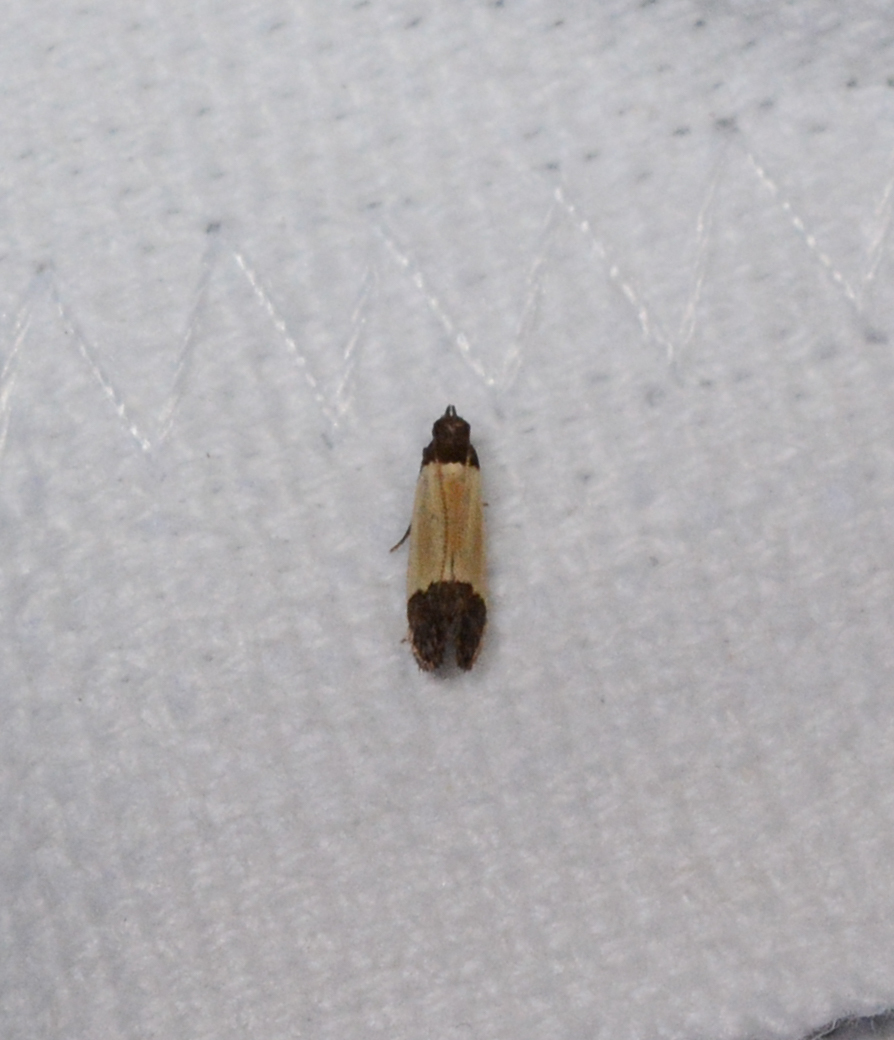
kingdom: Animalia
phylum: Arthropoda
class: Insecta
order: Lepidoptera
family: Gelechiidae
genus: Anacampsis
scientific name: Anacampsis coverdalella
